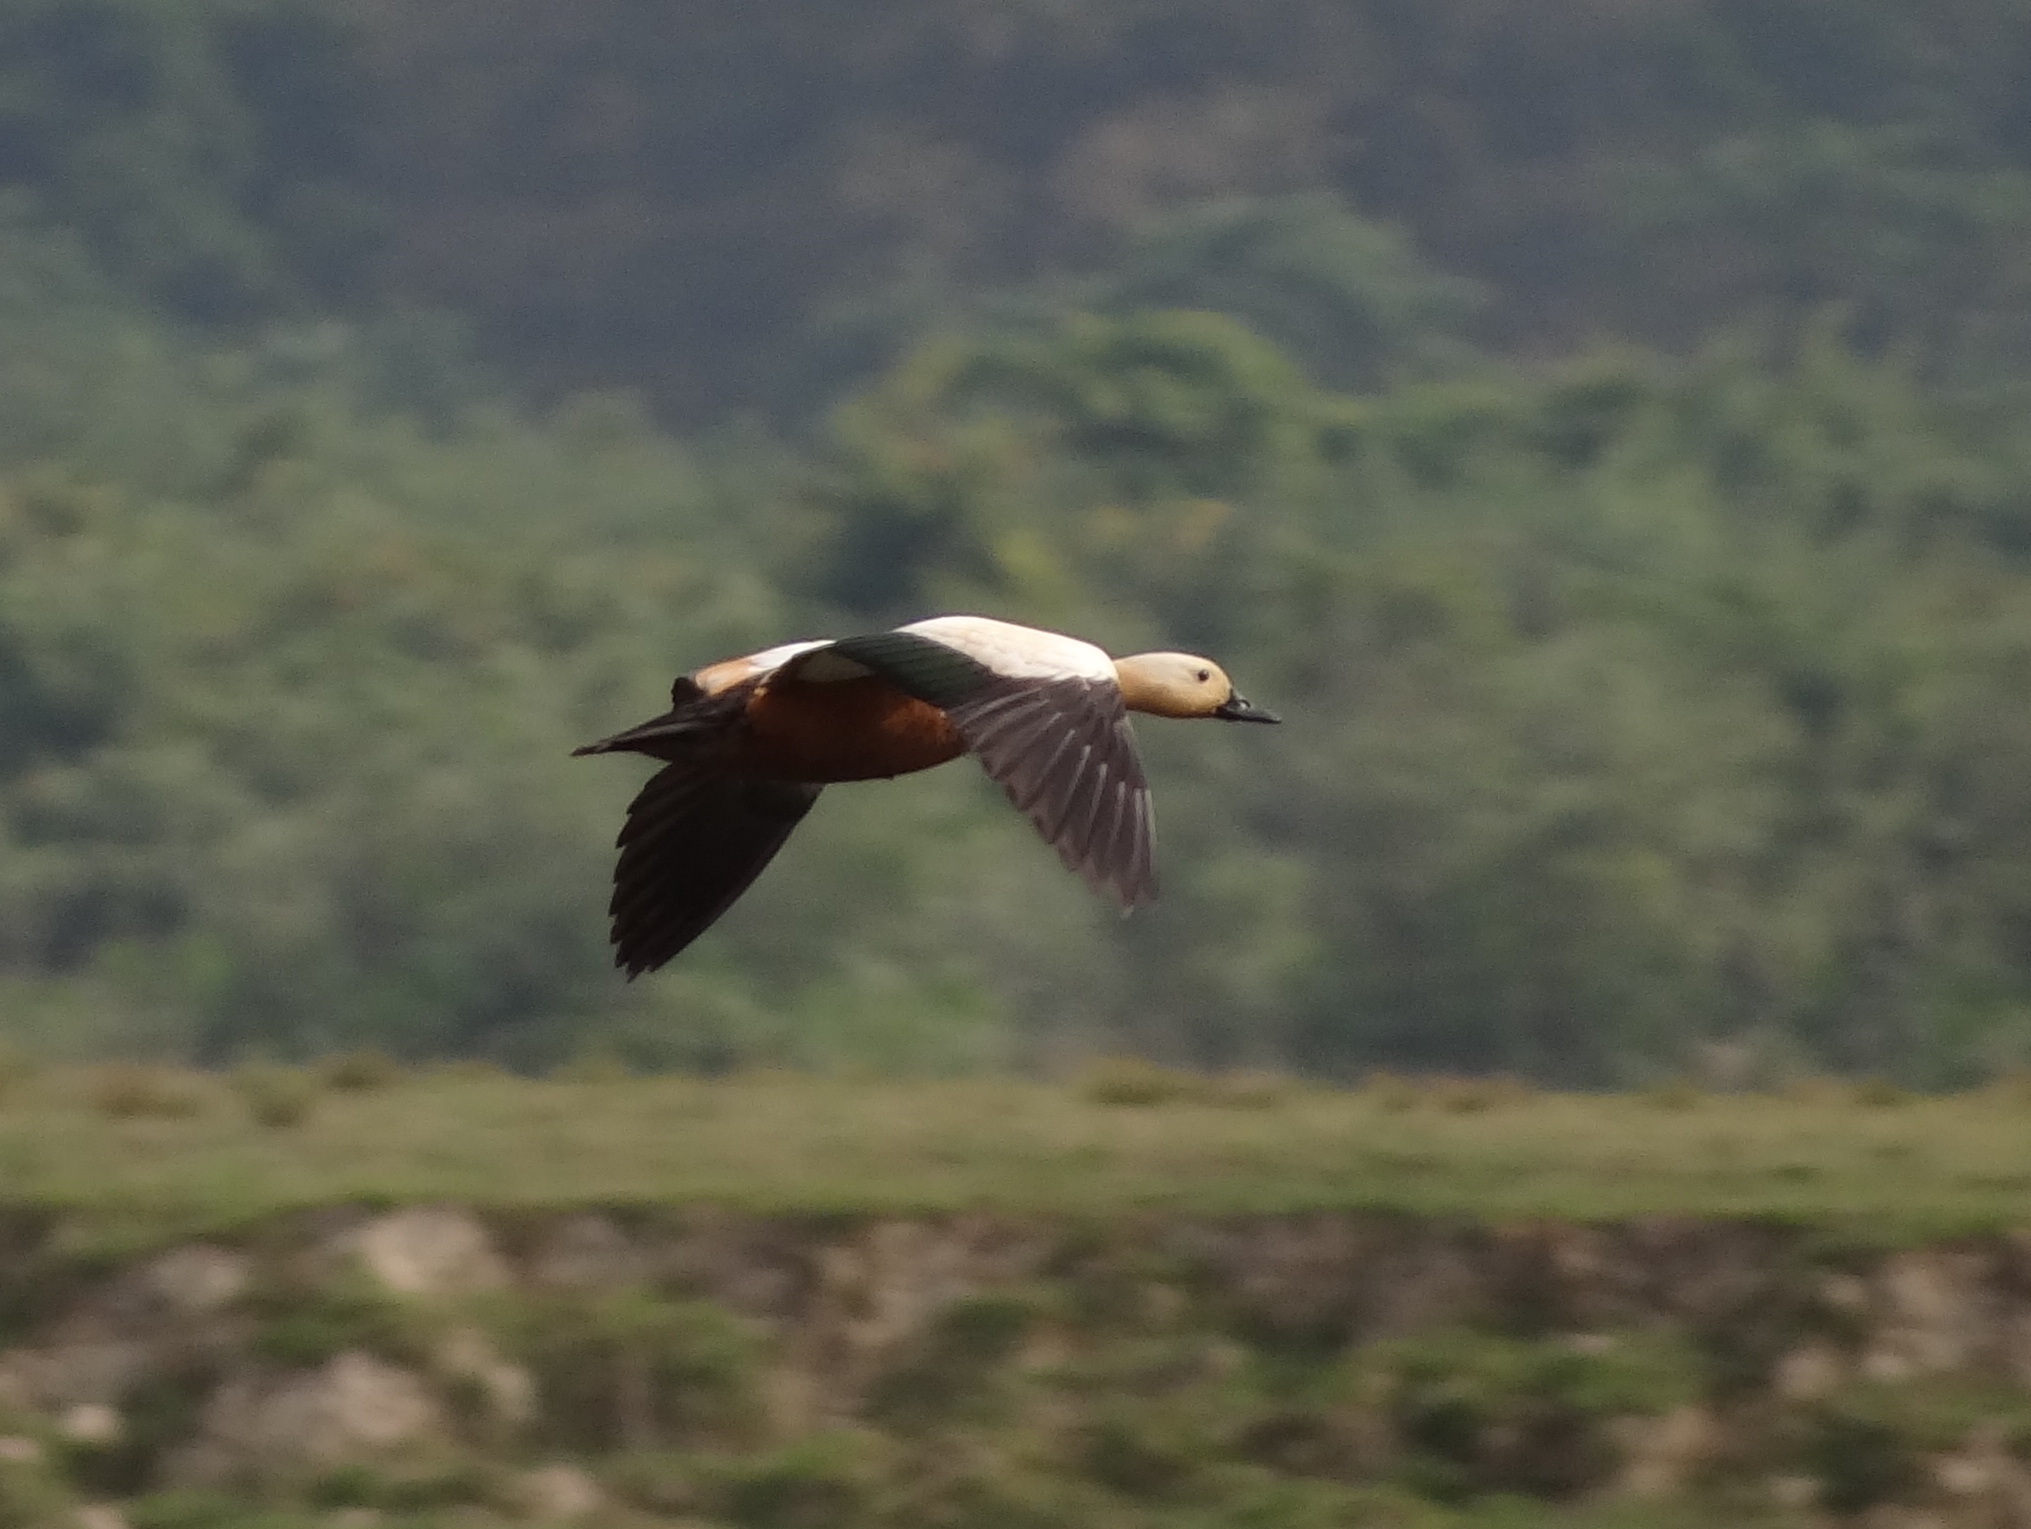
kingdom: Animalia
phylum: Chordata
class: Aves
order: Anseriformes
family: Anatidae
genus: Tadorna
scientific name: Tadorna ferruginea
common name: Ruddy shelduck
